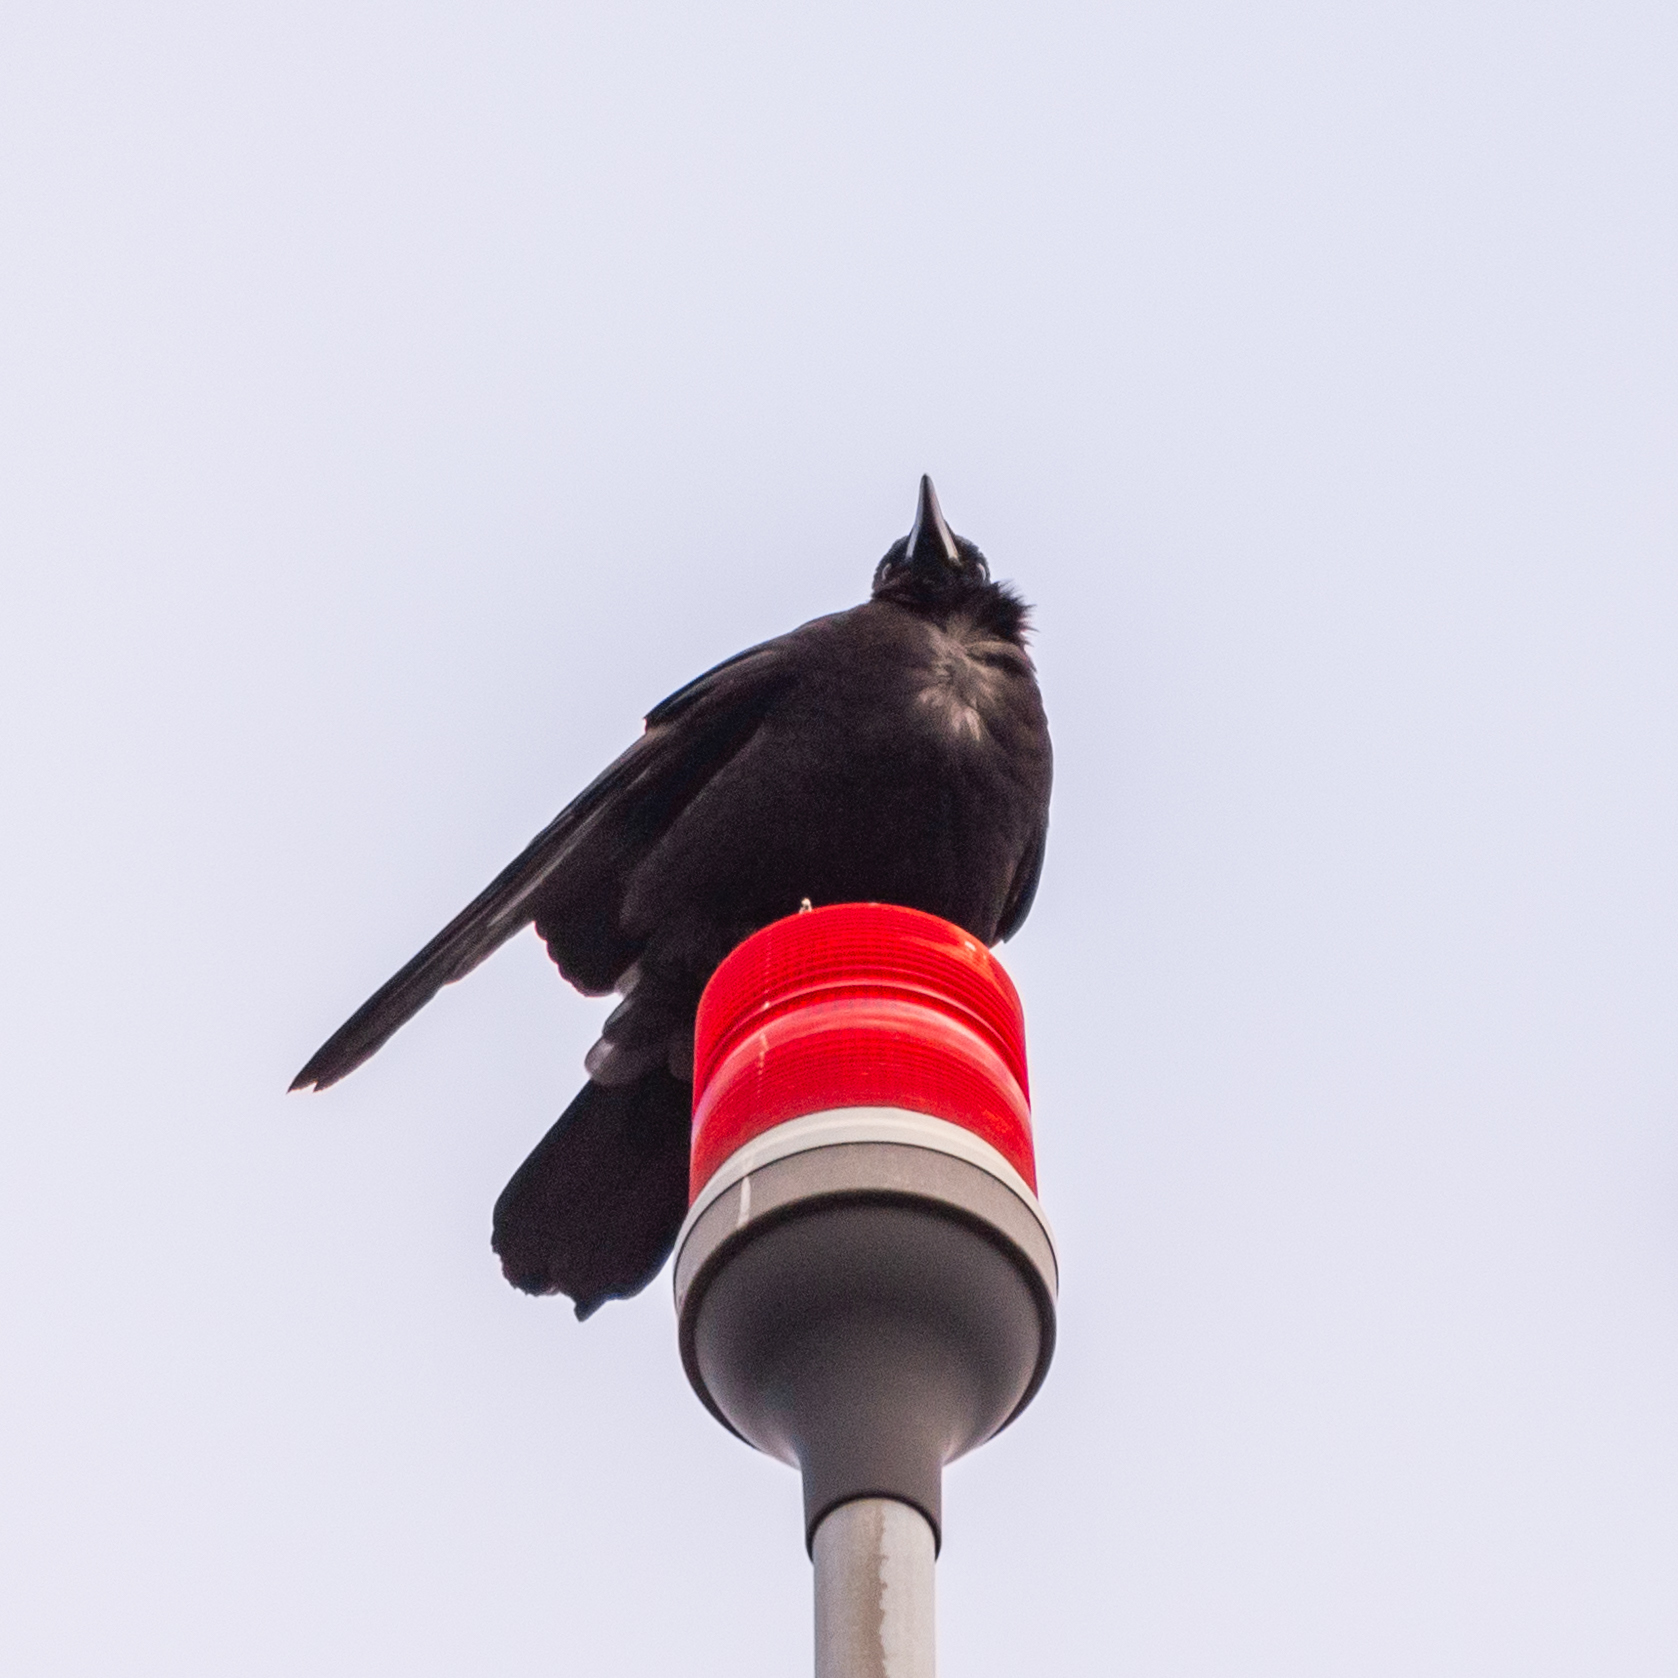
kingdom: Animalia
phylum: Chordata
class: Aves
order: Passeriformes
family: Corvidae
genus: Corvus
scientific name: Corvus corone
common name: Carrion crow
